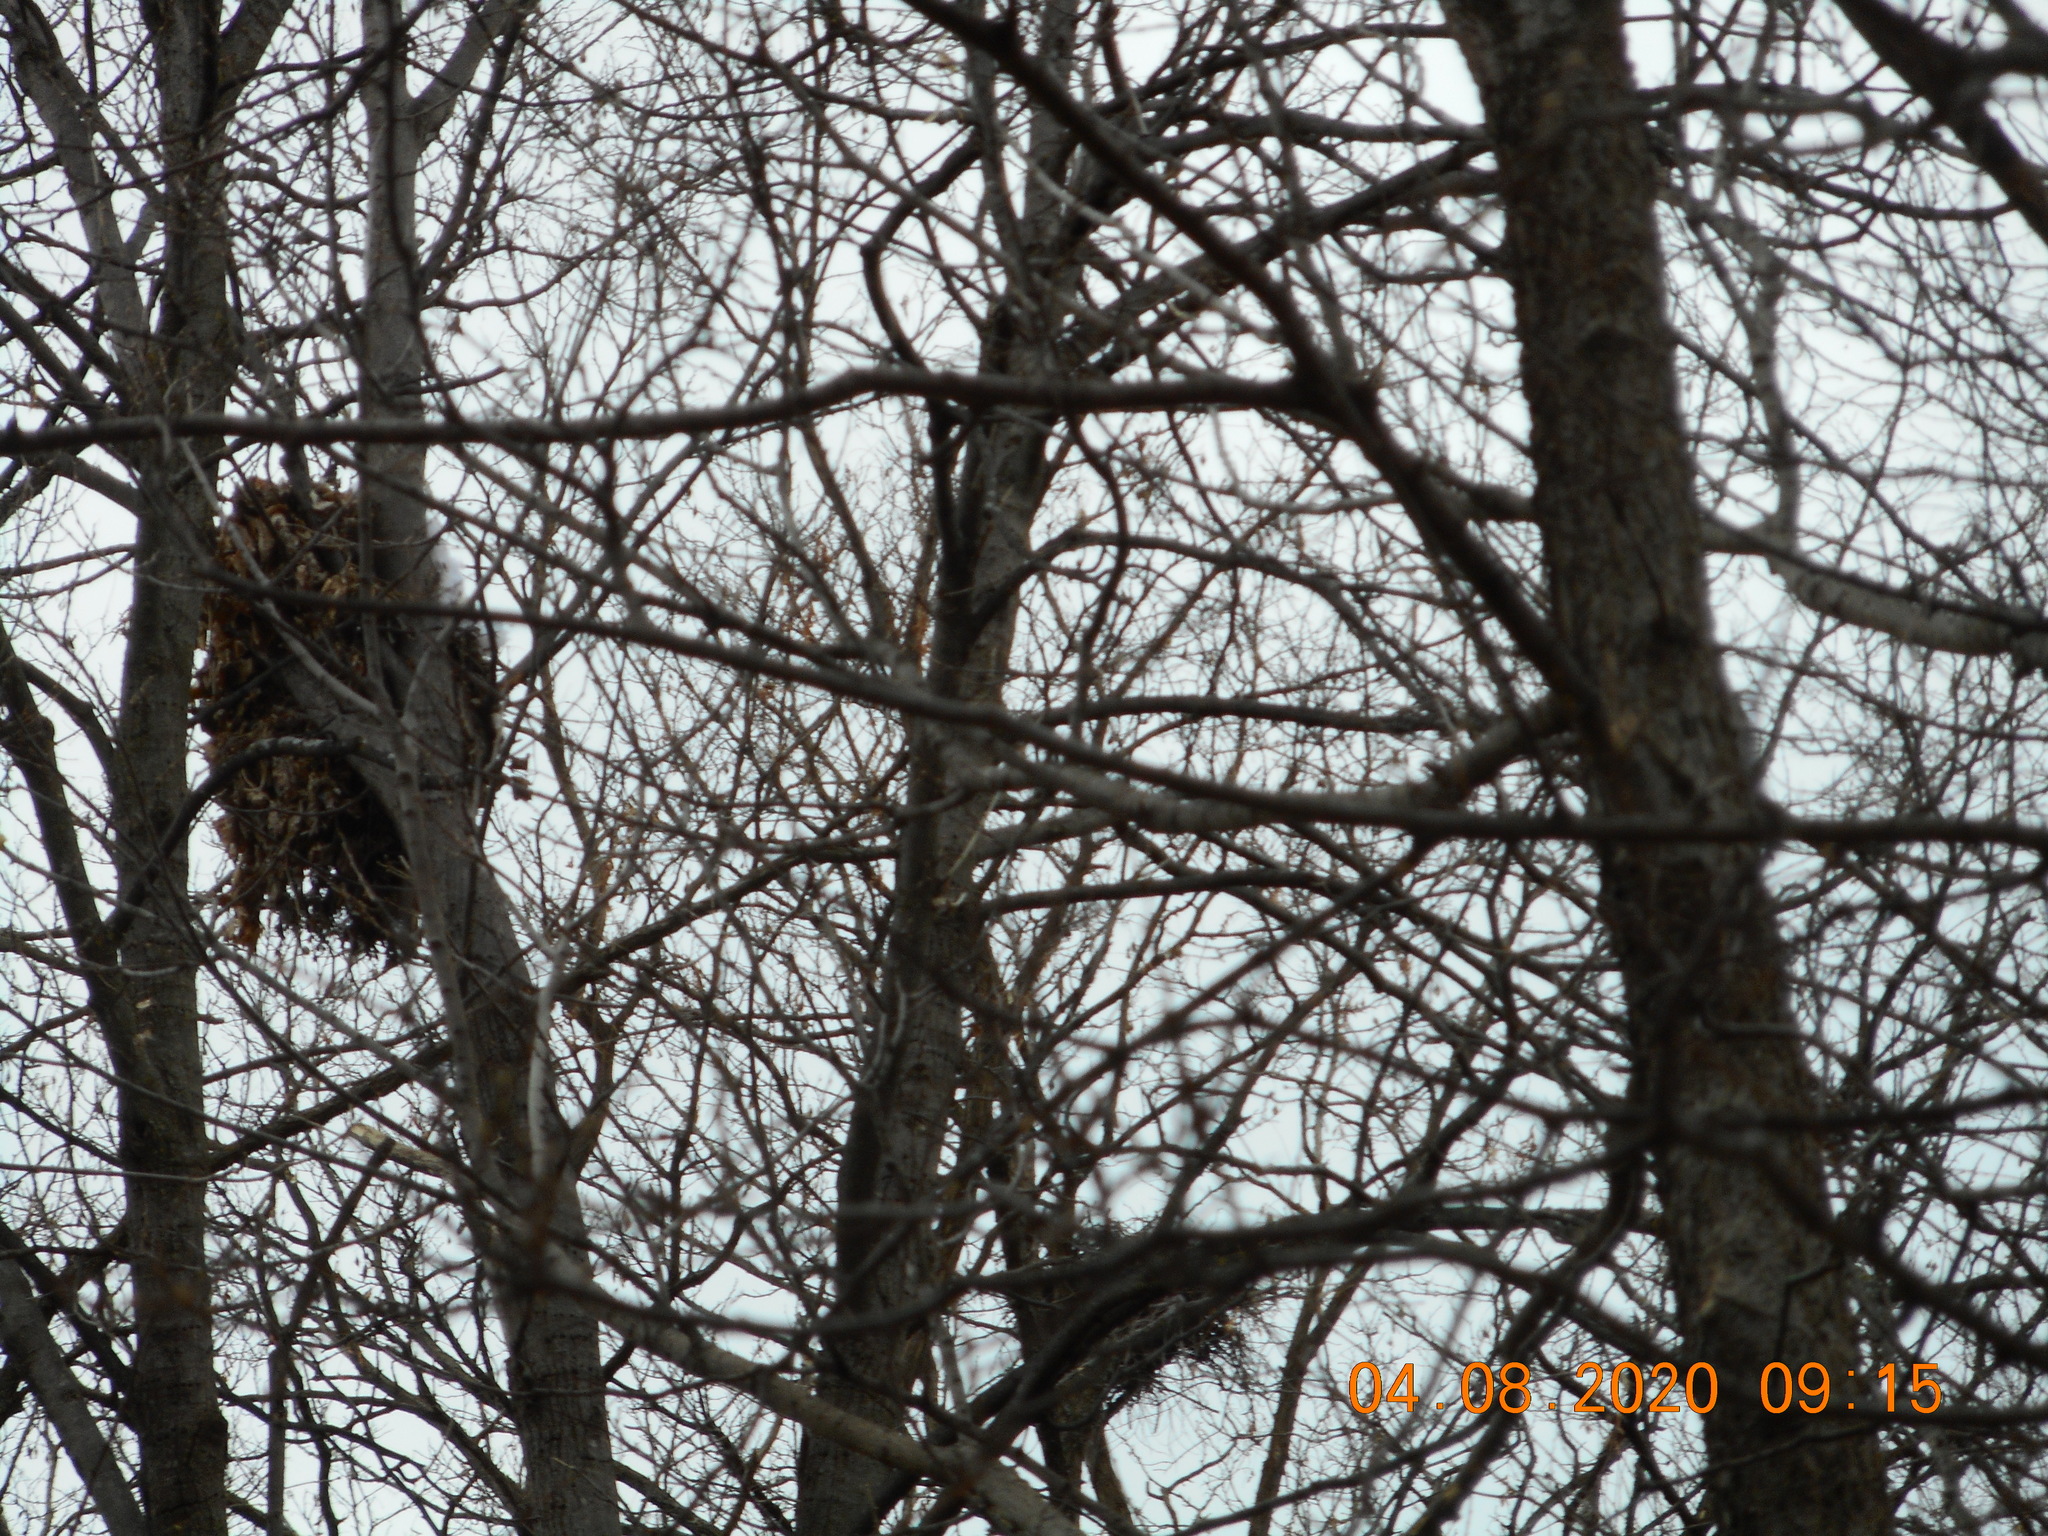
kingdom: Animalia
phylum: Chordata
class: Aves
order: Accipitriformes
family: Accipitridae
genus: Accipiter
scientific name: Accipiter cooperii
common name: Cooper's hawk
